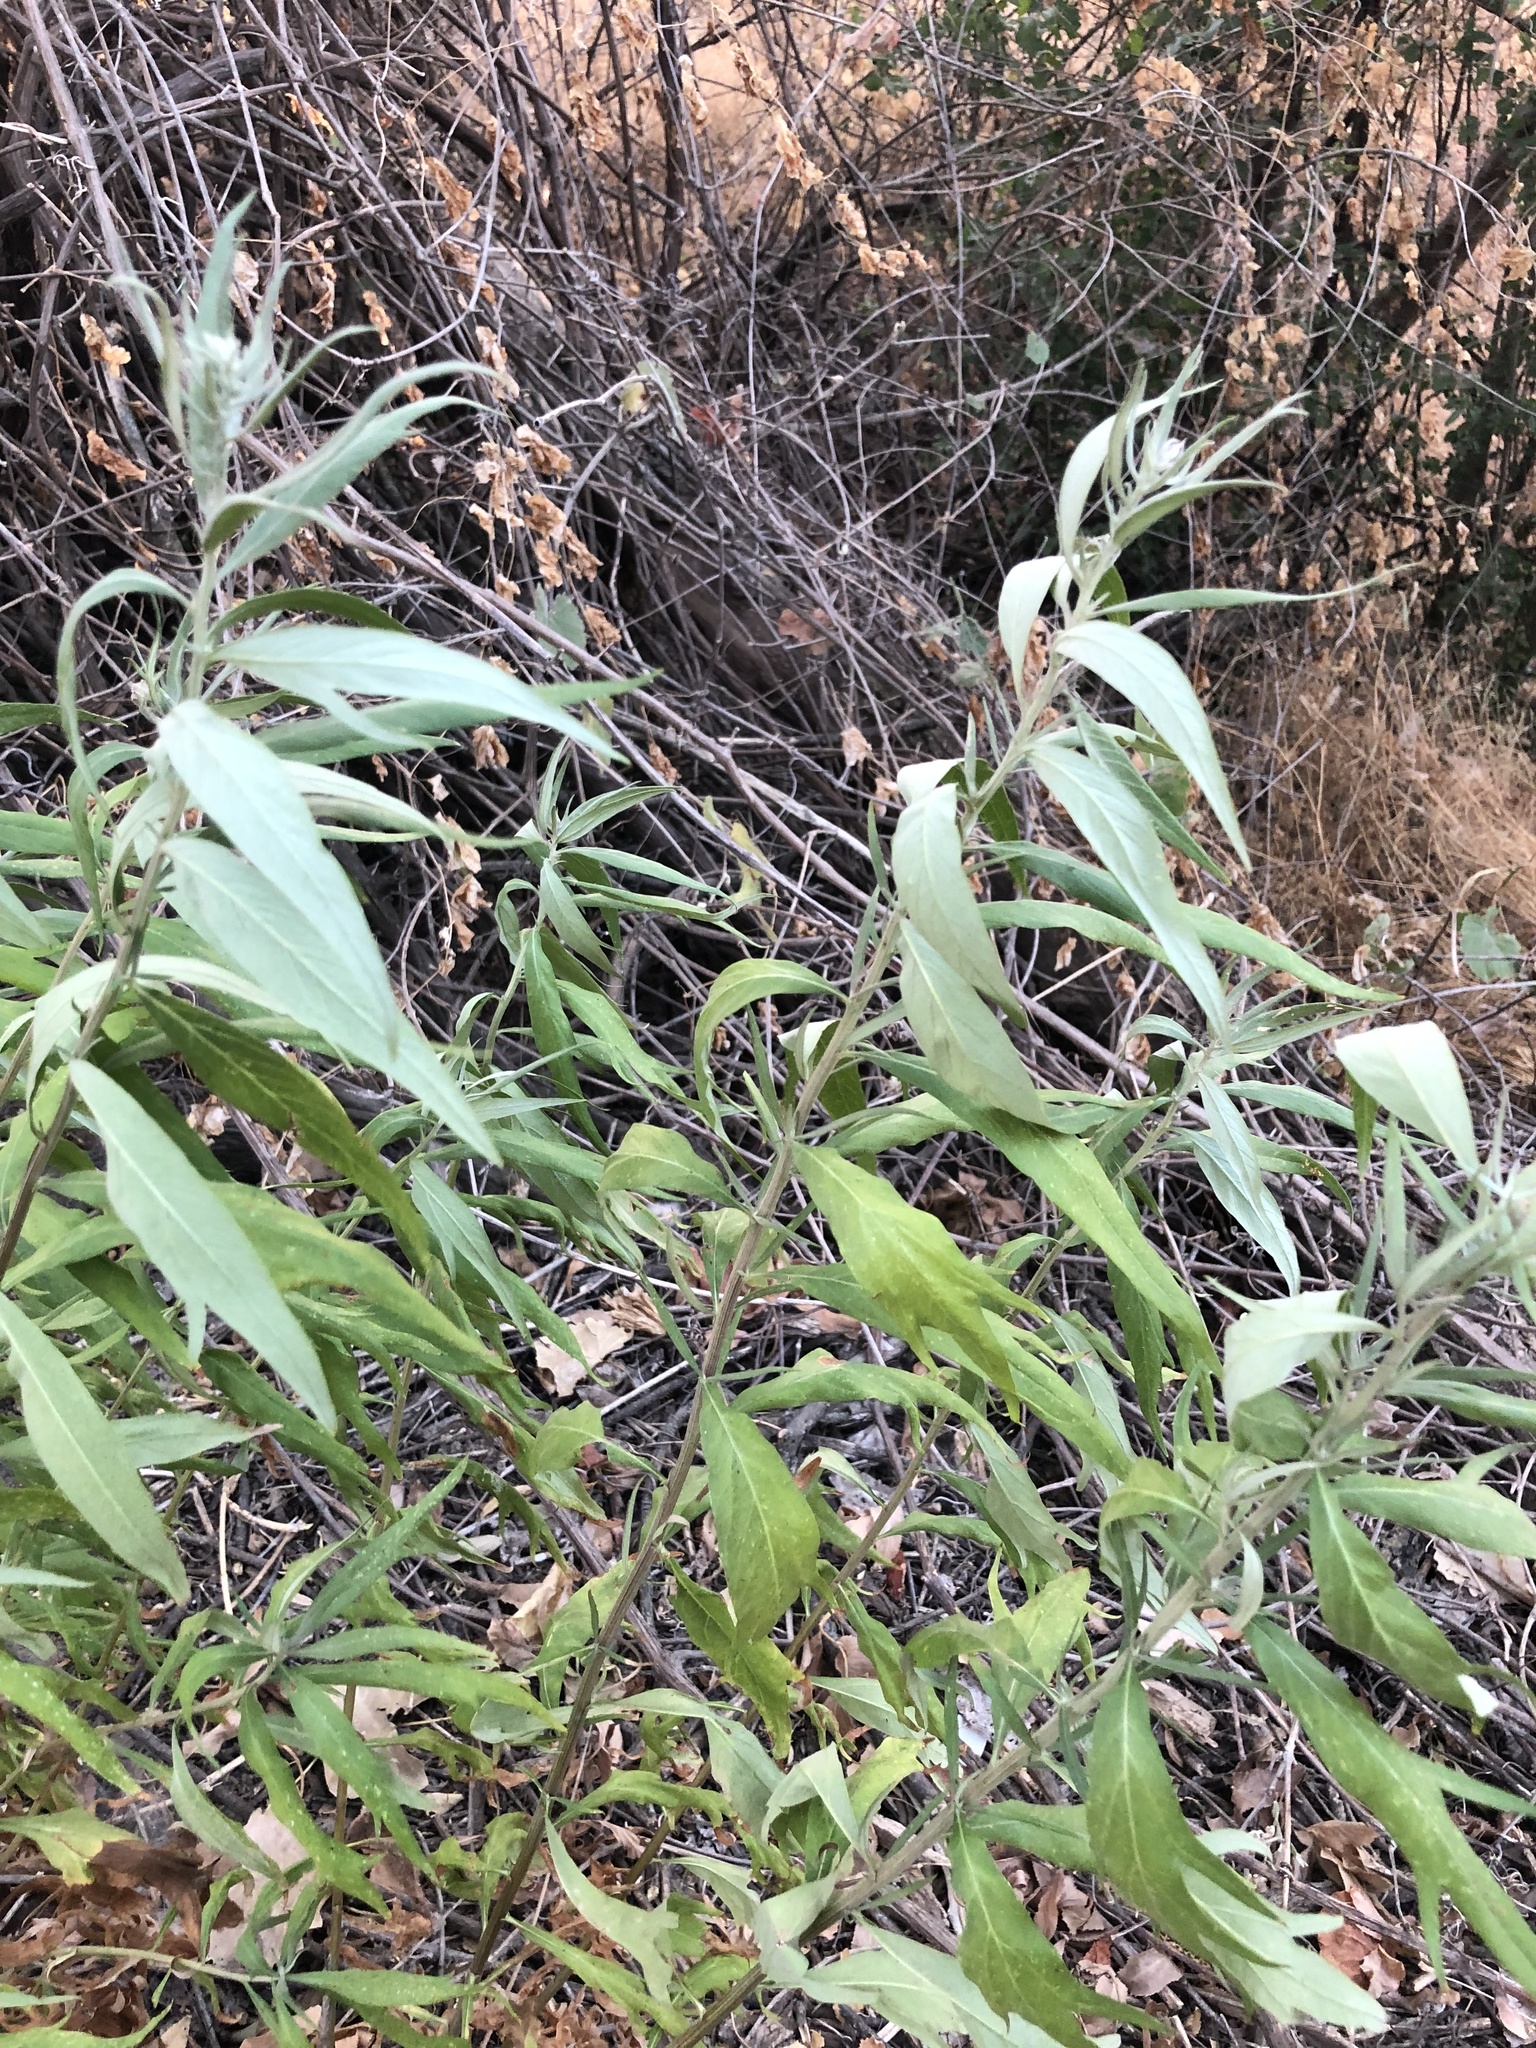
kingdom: Plantae
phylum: Tracheophyta
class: Magnoliopsida
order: Asterales
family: Asteraceae
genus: Artemisia
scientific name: Artemisia douglasiana
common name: Northwest mugwort
